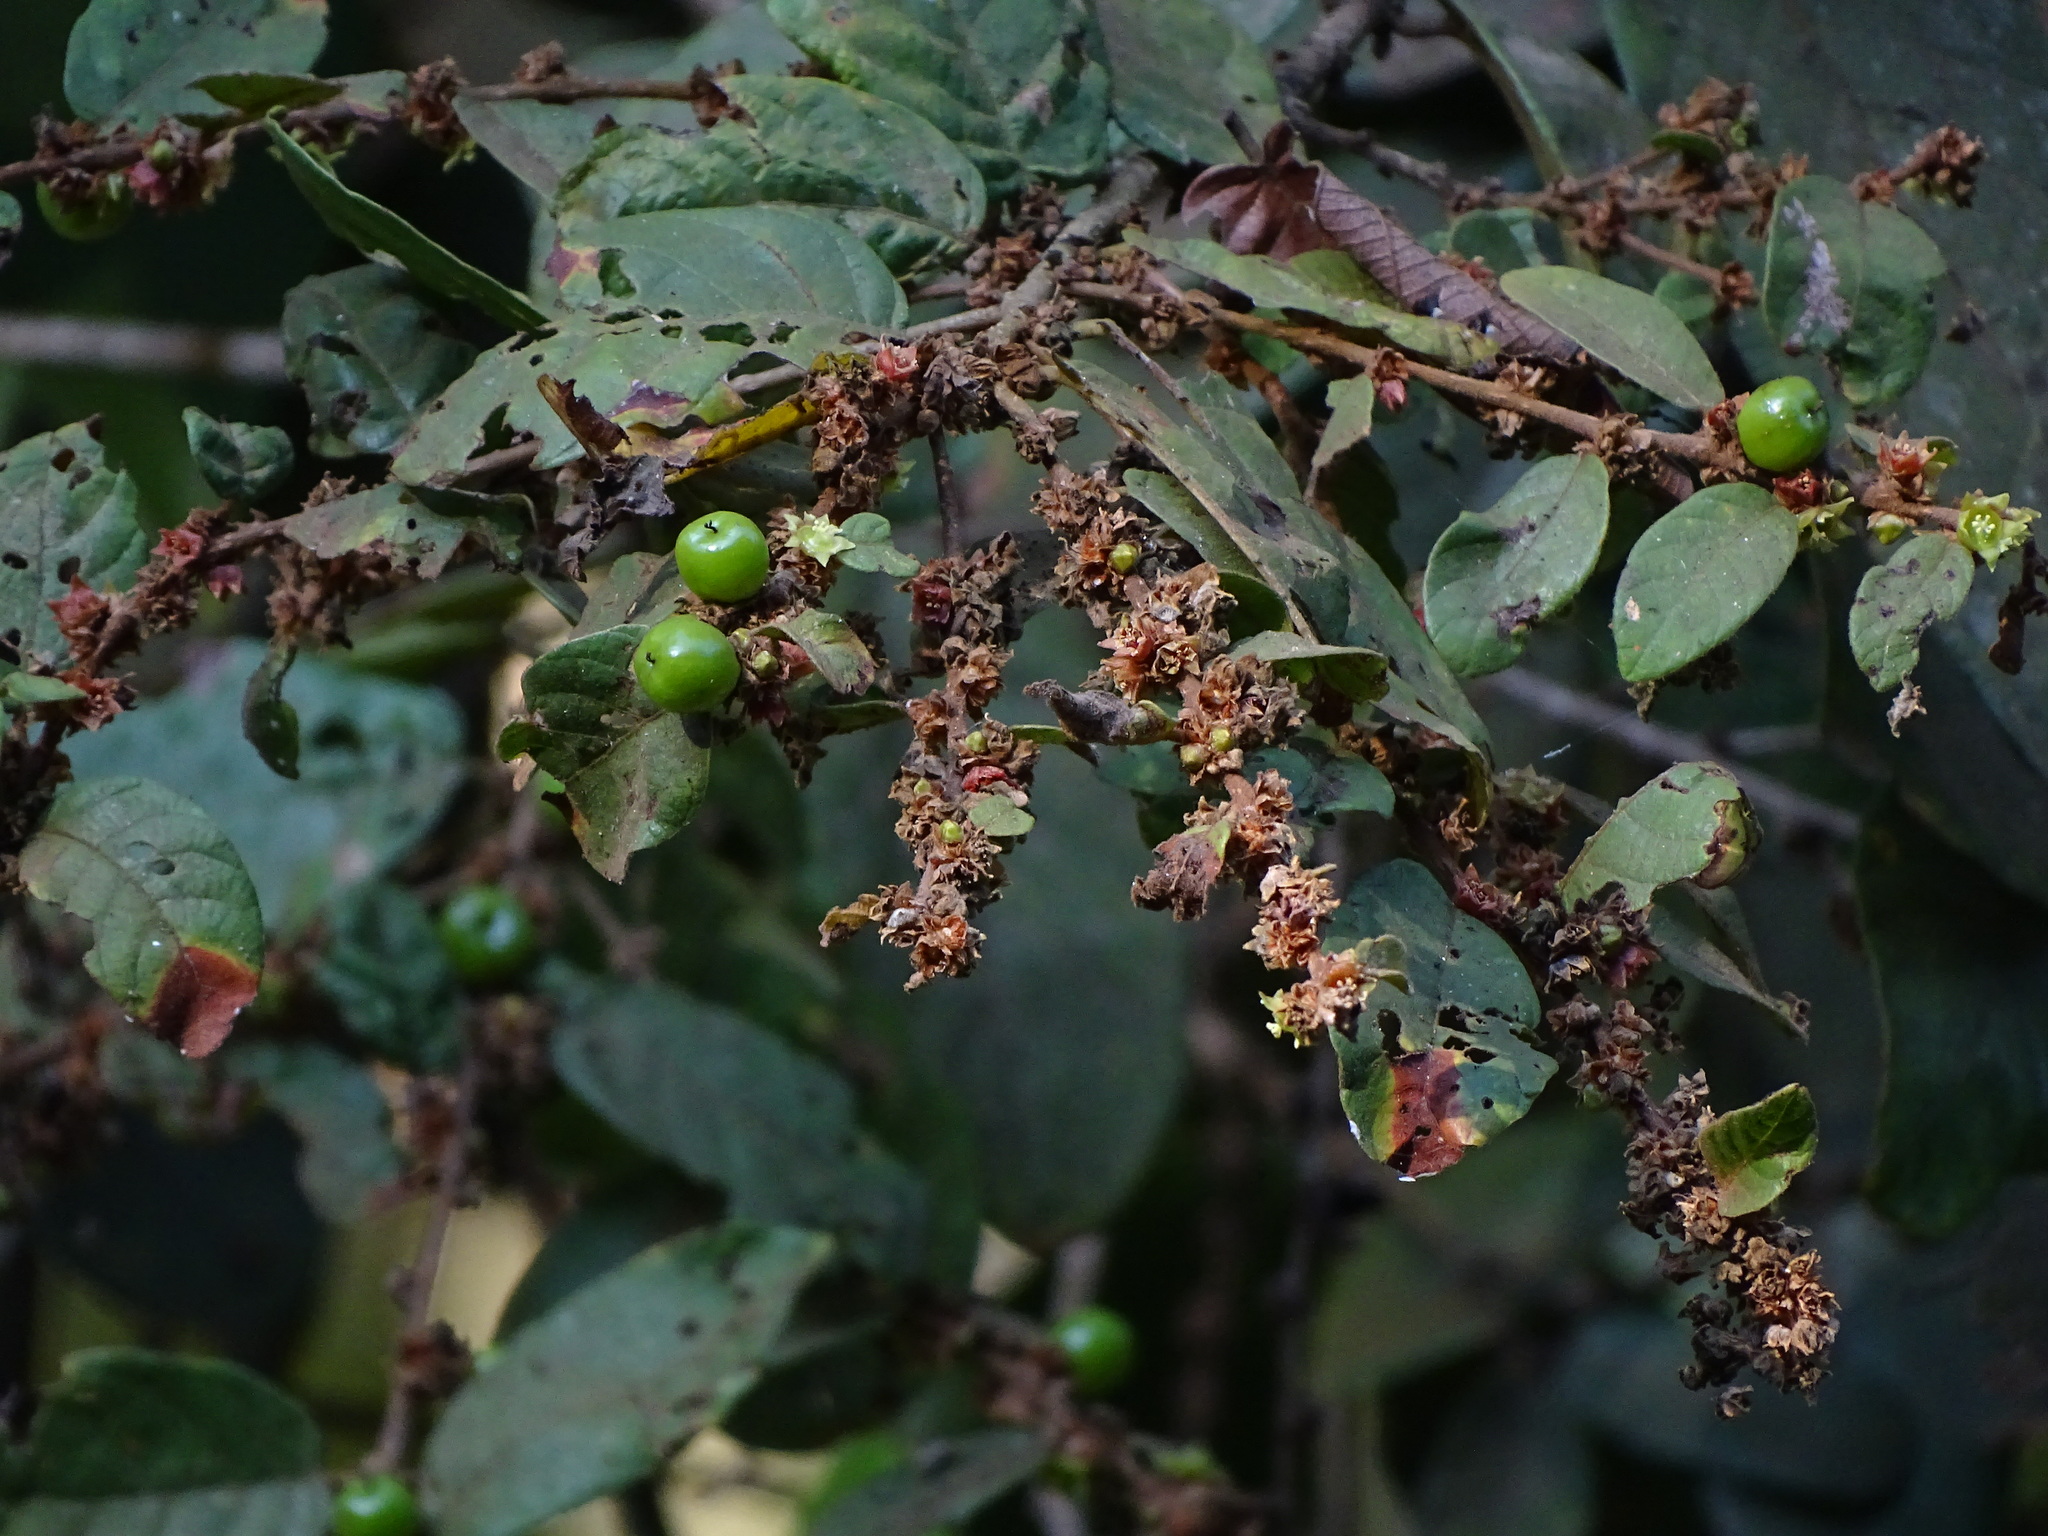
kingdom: Plantae
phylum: Tracheophyta
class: Magnoliopsida
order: Malpighiales
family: Phyllanthaceae
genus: Bridelia
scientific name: Bridelia stipularis
